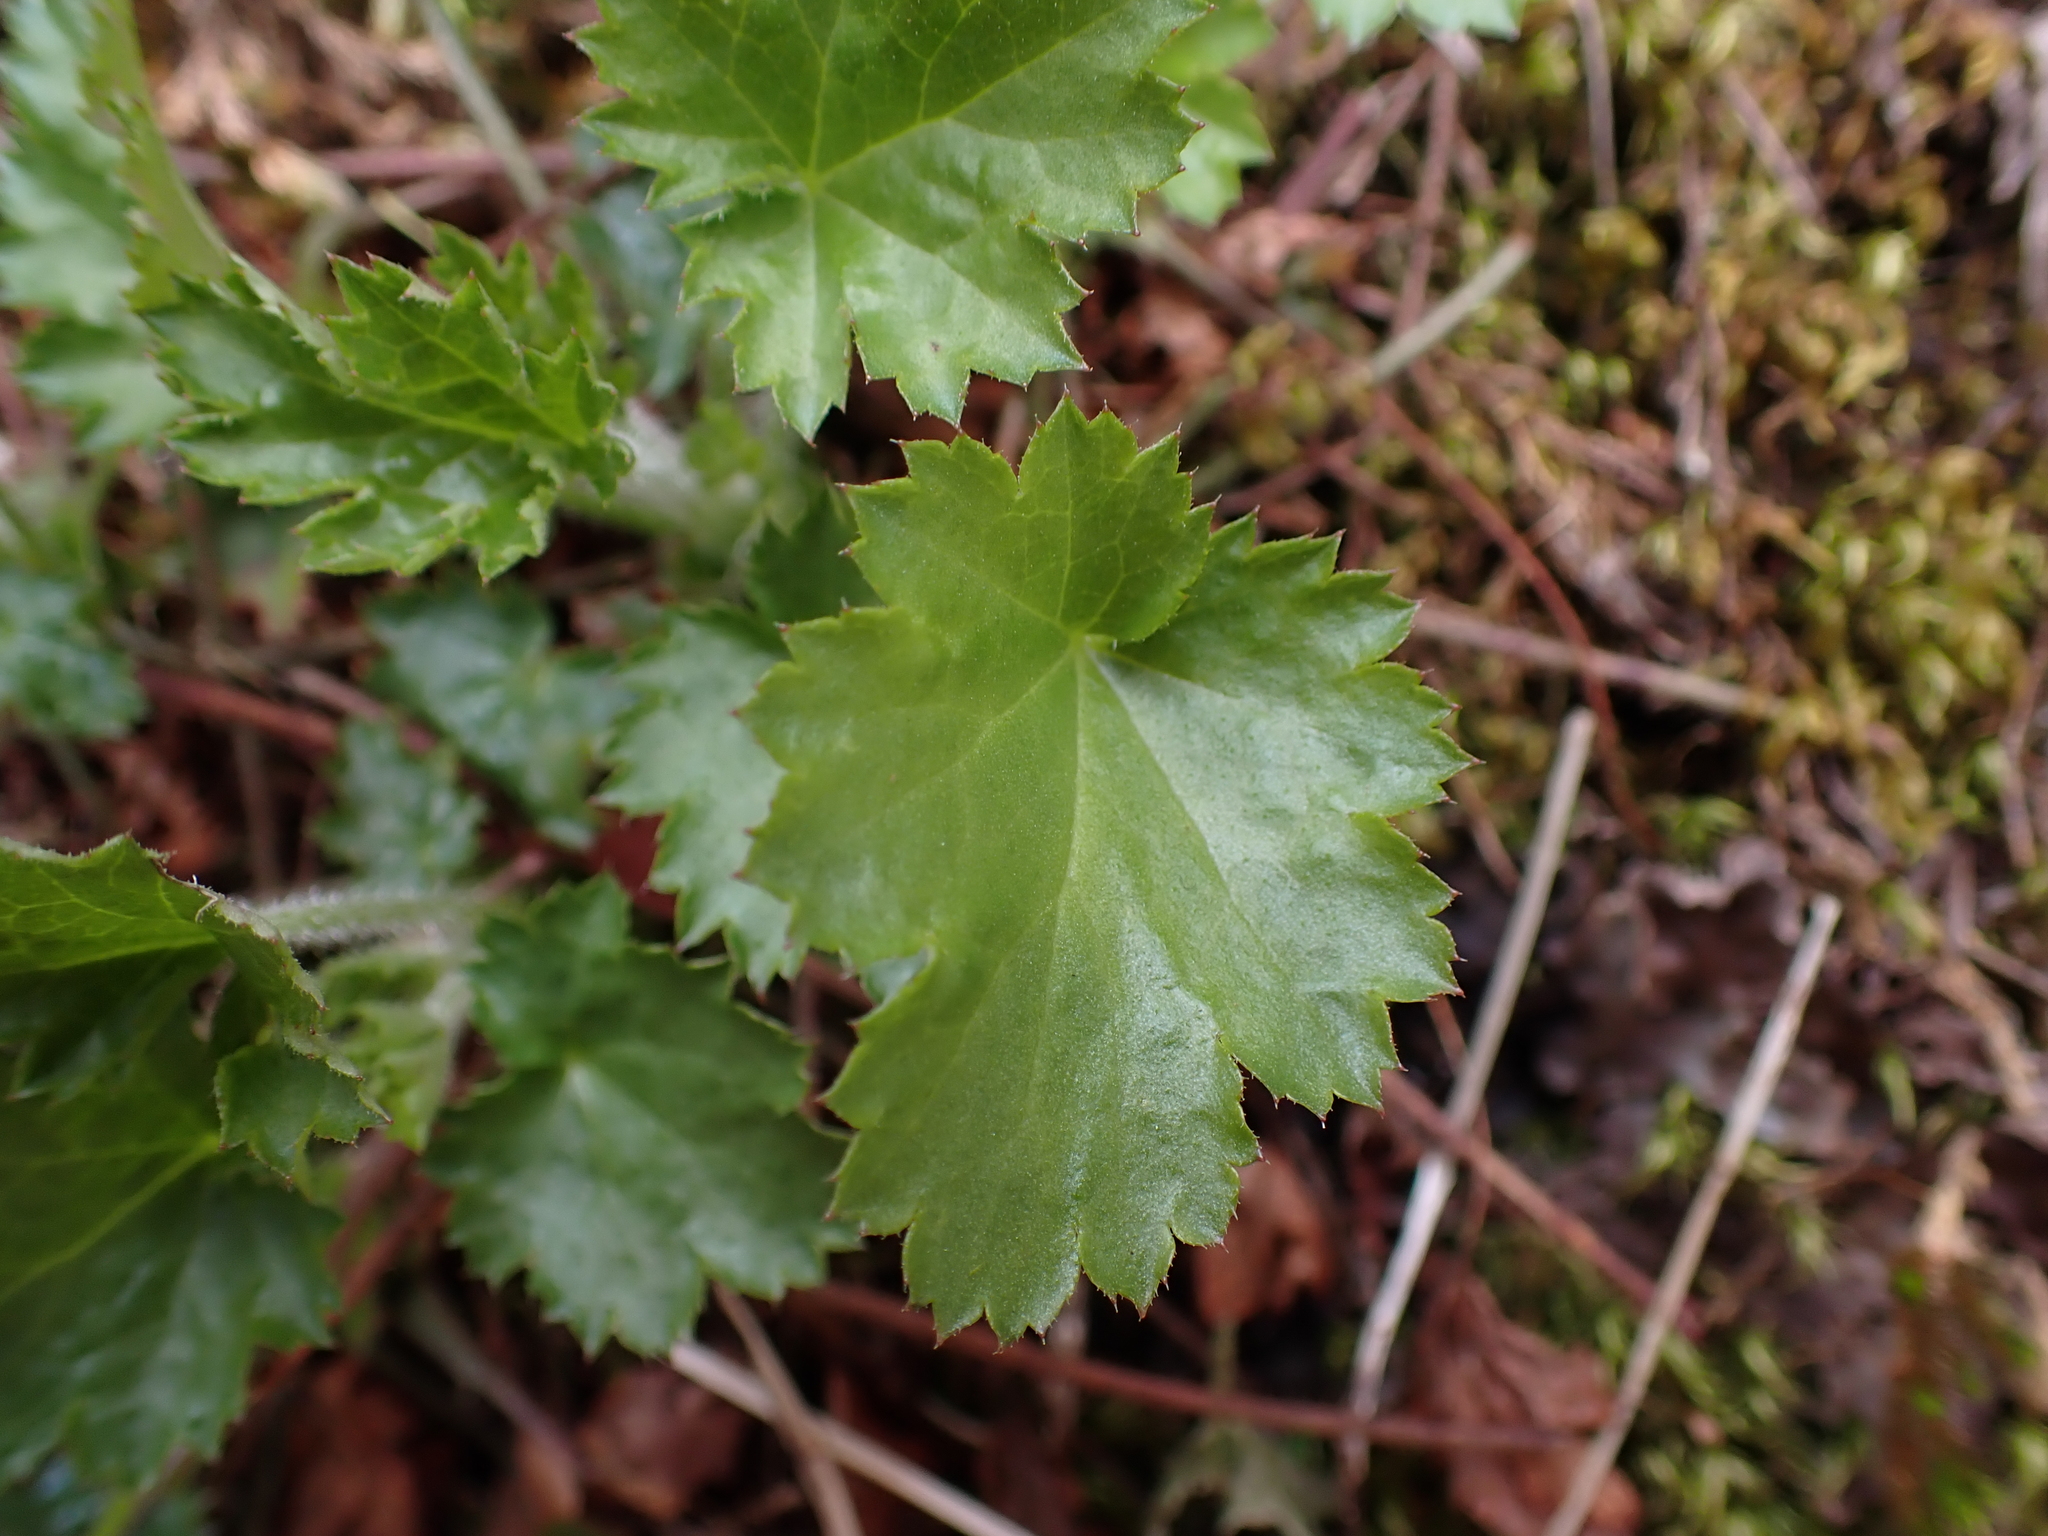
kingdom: Plantae
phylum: Tracheophyta
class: Magnoliopsida
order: Saxifragales
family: Saxifragaceae
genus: Heuchera
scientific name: Heuchera micrantha
